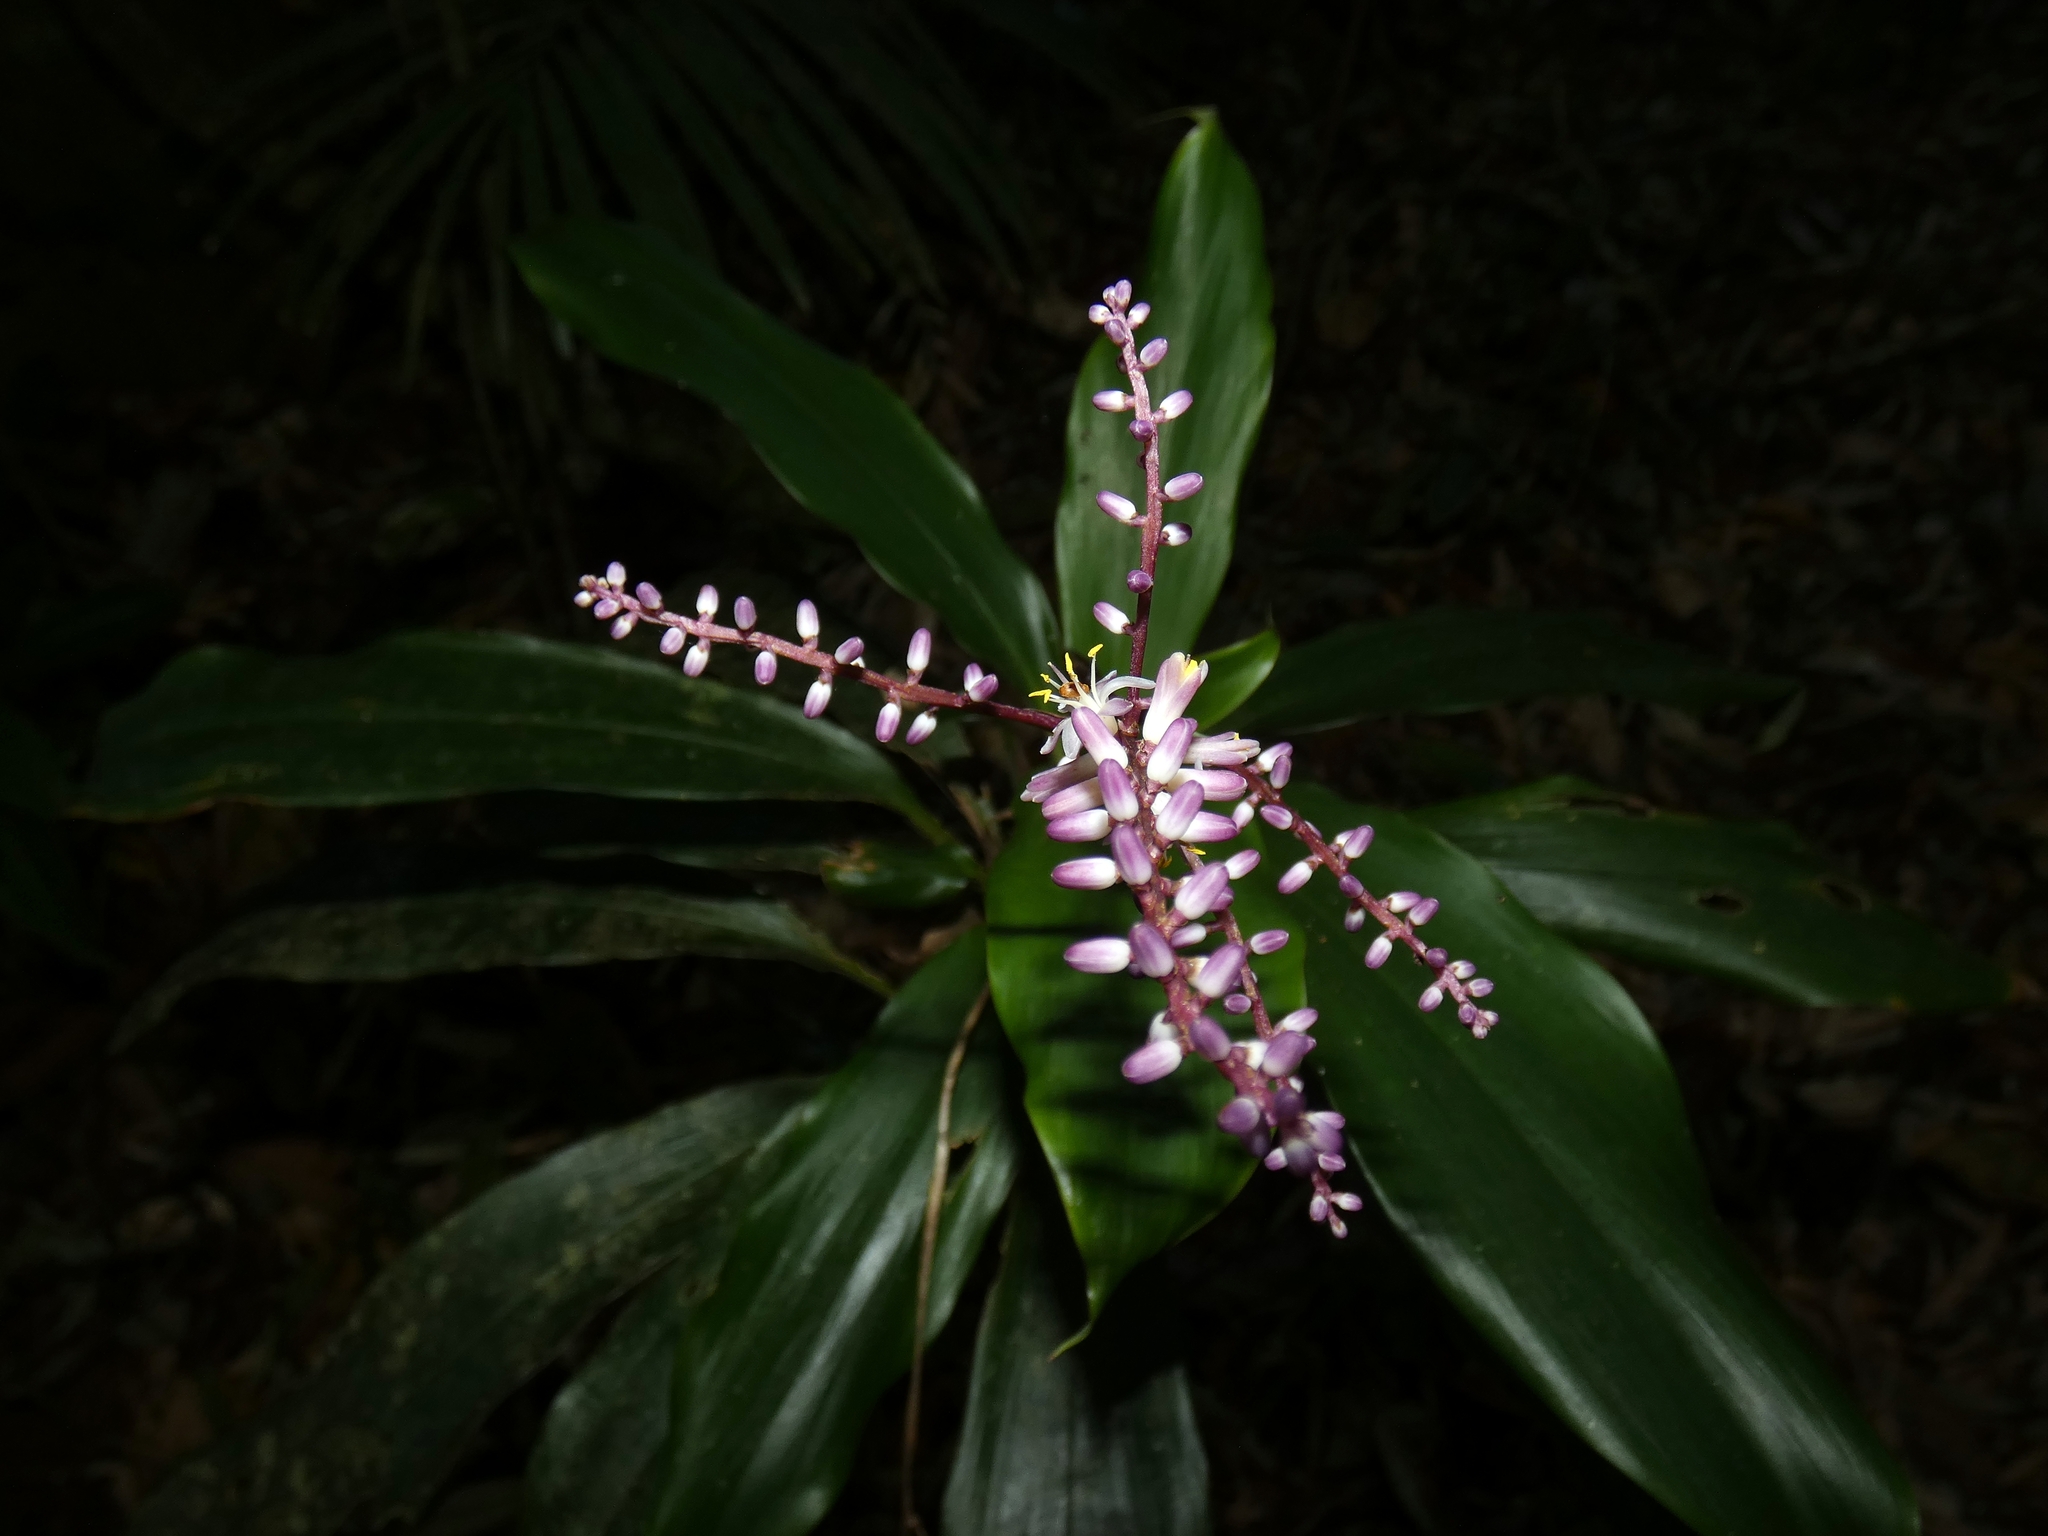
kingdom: Plantae
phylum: Tracheophyta
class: Liliopsida
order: Asparagales
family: Asparagaceae
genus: Cordyline
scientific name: Cordyline cannifolia
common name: Palm-lily
